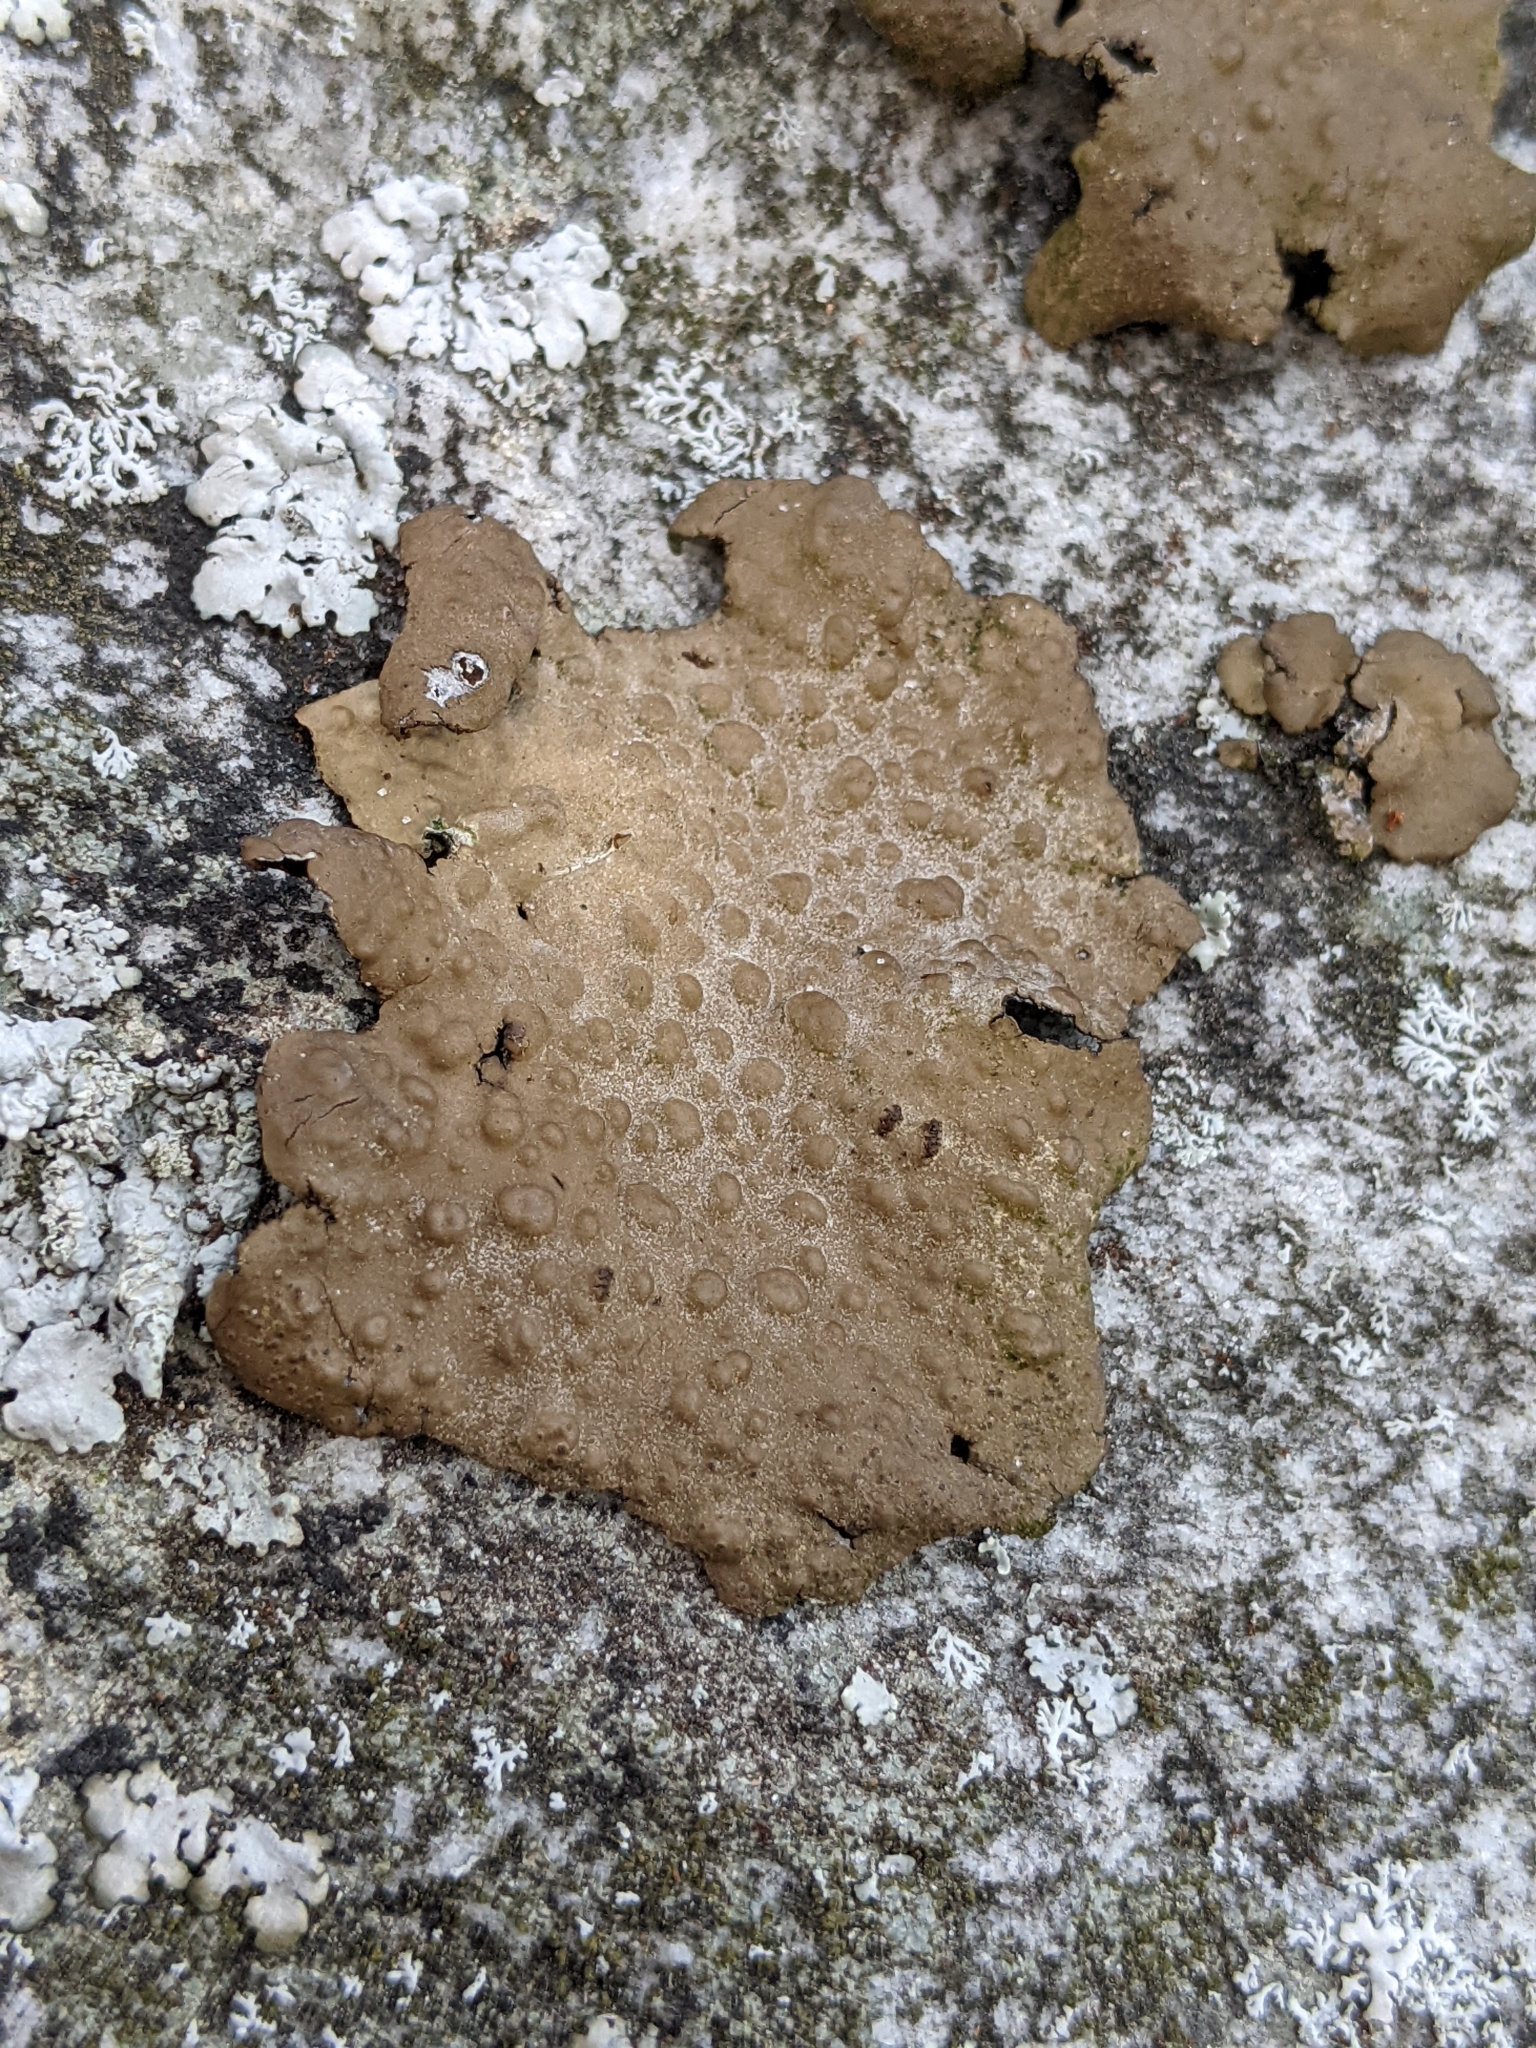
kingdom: Fungi
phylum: Ascomycota
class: Lecanoromycetes
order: Umbilicariales
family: Umbilicariaceae
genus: Lasallia
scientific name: Lasallia pensylvanica
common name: Blackened toadskin lichen
